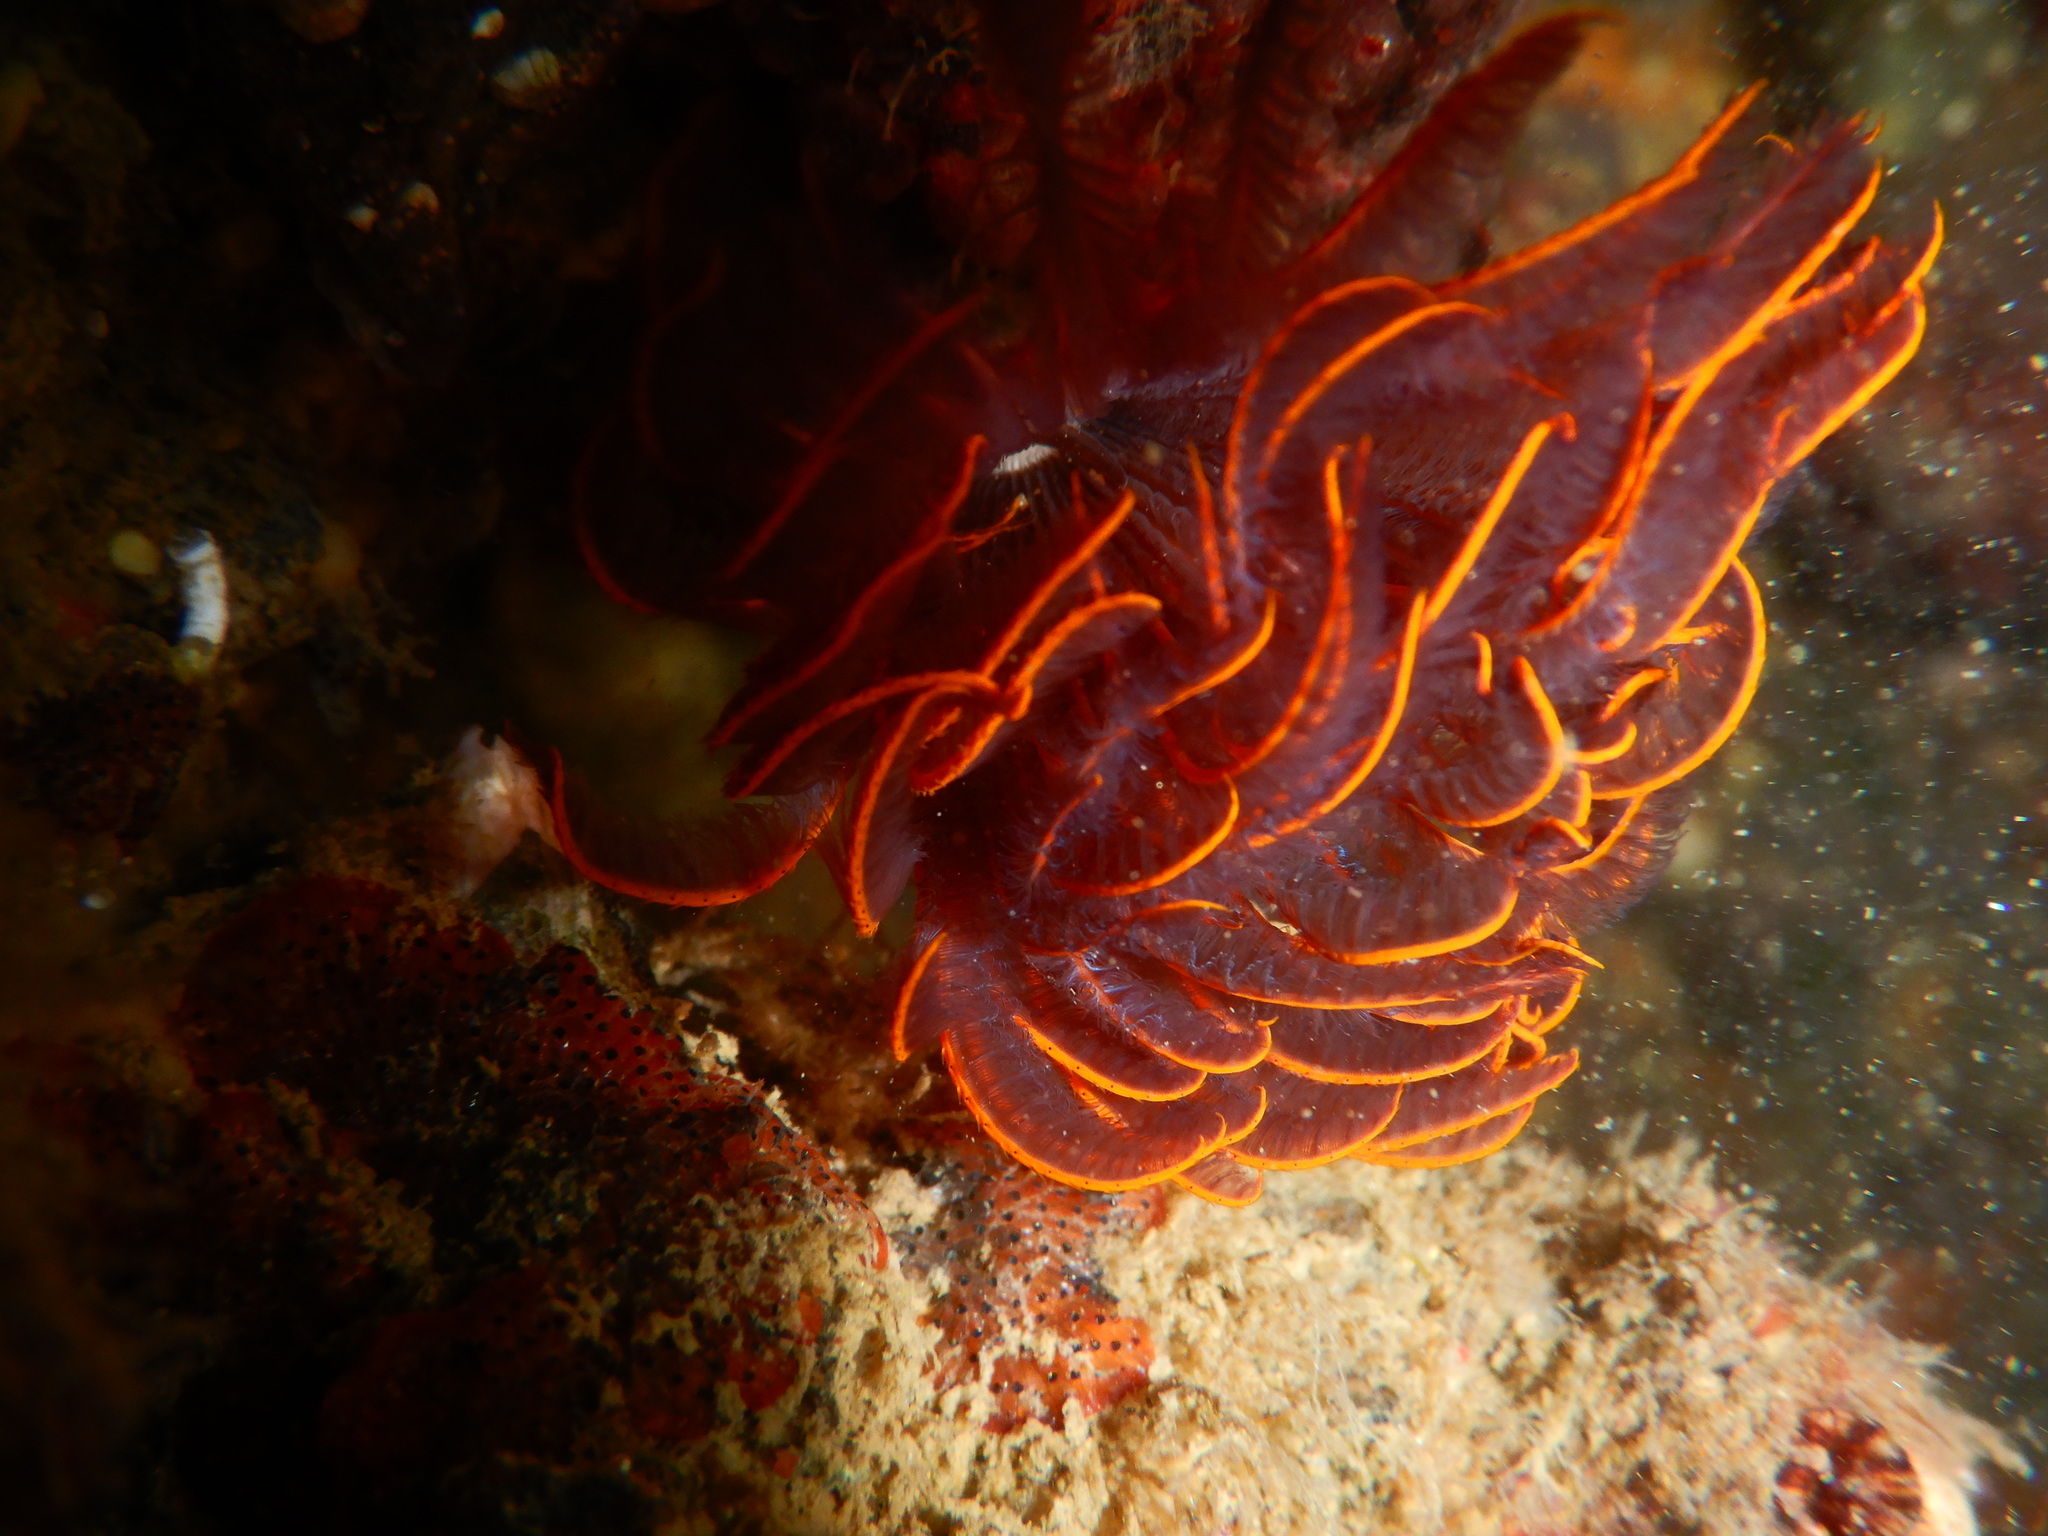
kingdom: Animalia
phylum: Annelida
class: Polychaeta
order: Sabellida
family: Sabellidae
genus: Branchiomma
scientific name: Branchiomma luctuosum
